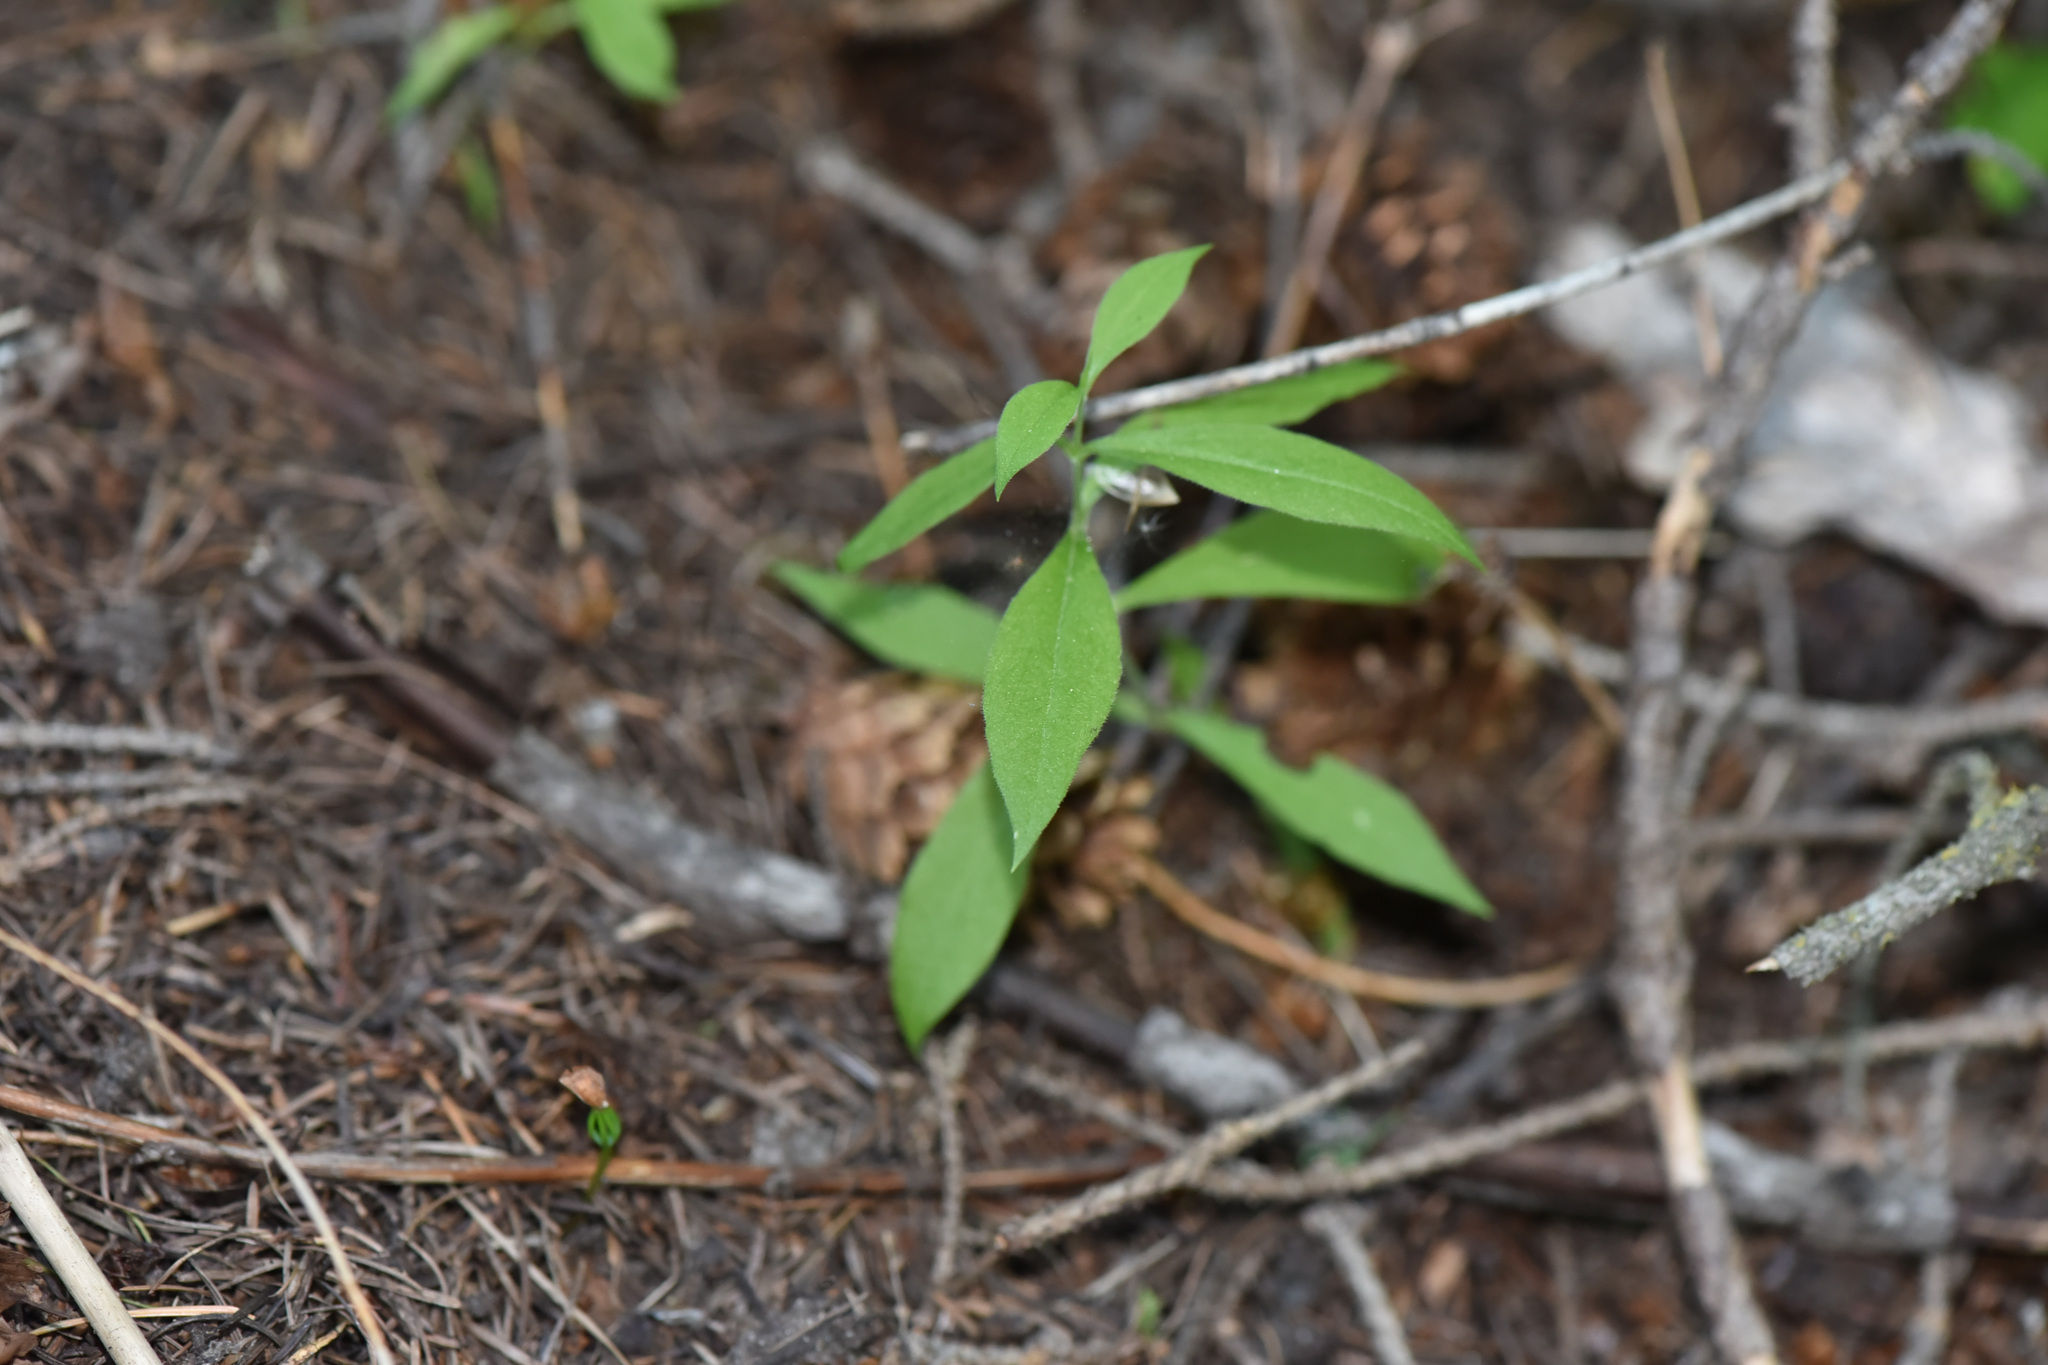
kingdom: Plantae
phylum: Tracheophyta
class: Magnoliopsida
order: Caryophyllales
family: Caryophyllaceae
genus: Silene
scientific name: Silene menziesii
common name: Menzies's catchfly
